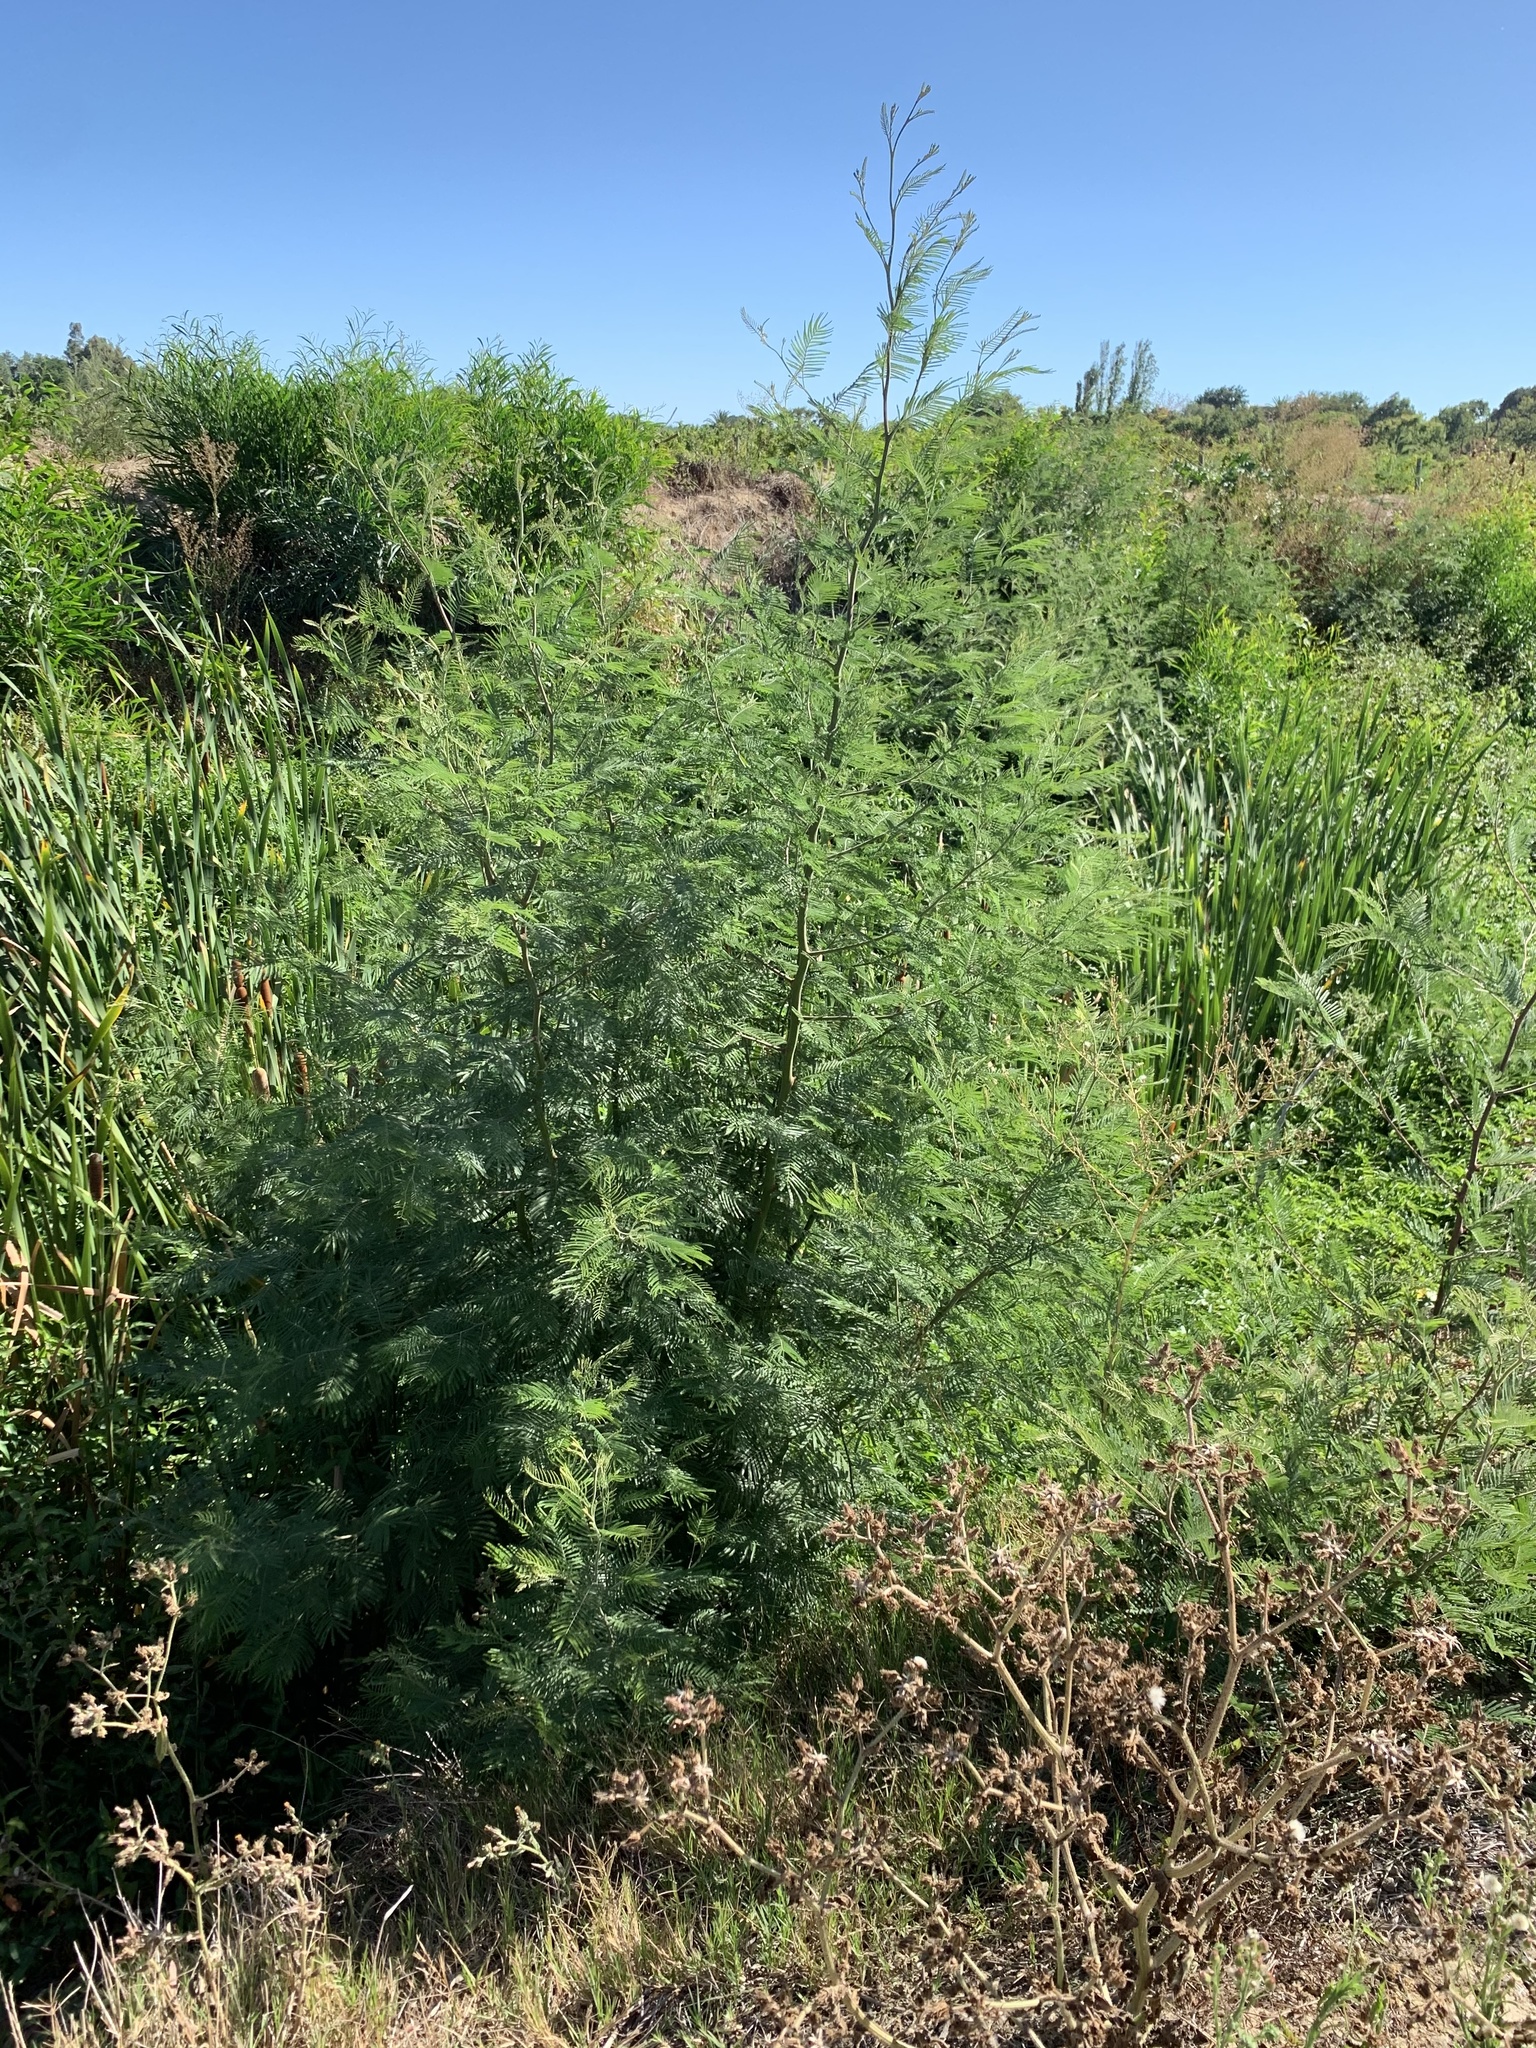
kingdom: Plantae
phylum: Tracheophyta
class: Magnoliopsida
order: Fabales
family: Fabaceae
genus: Acacia
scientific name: Acacia mearnsii
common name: Black wattle
